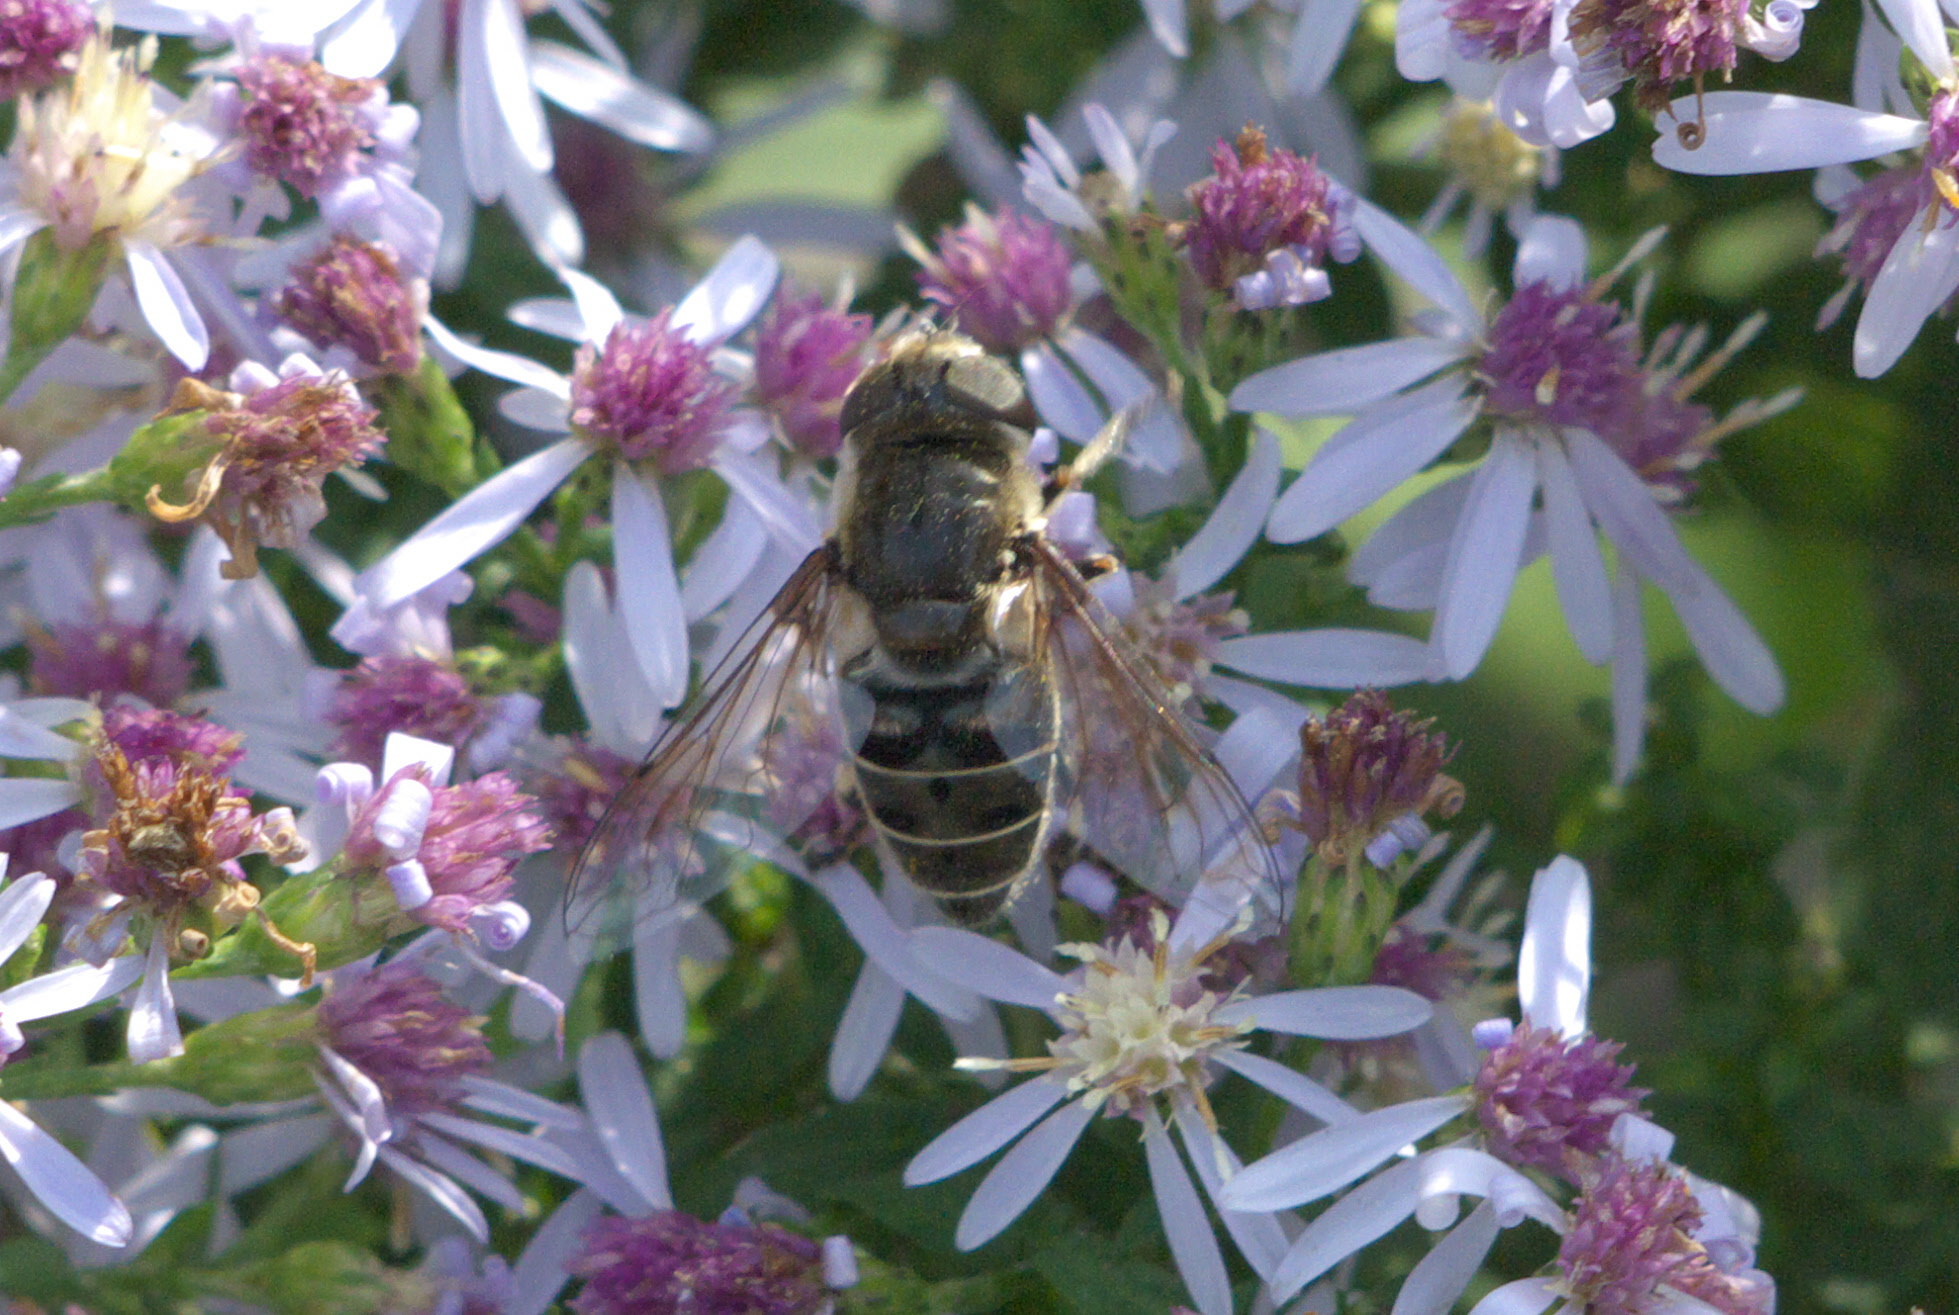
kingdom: Animalia
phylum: Arthropoda
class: Insecta
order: Diptera
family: Syrphidae
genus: Eristalis
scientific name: Eristalis dimidiata
